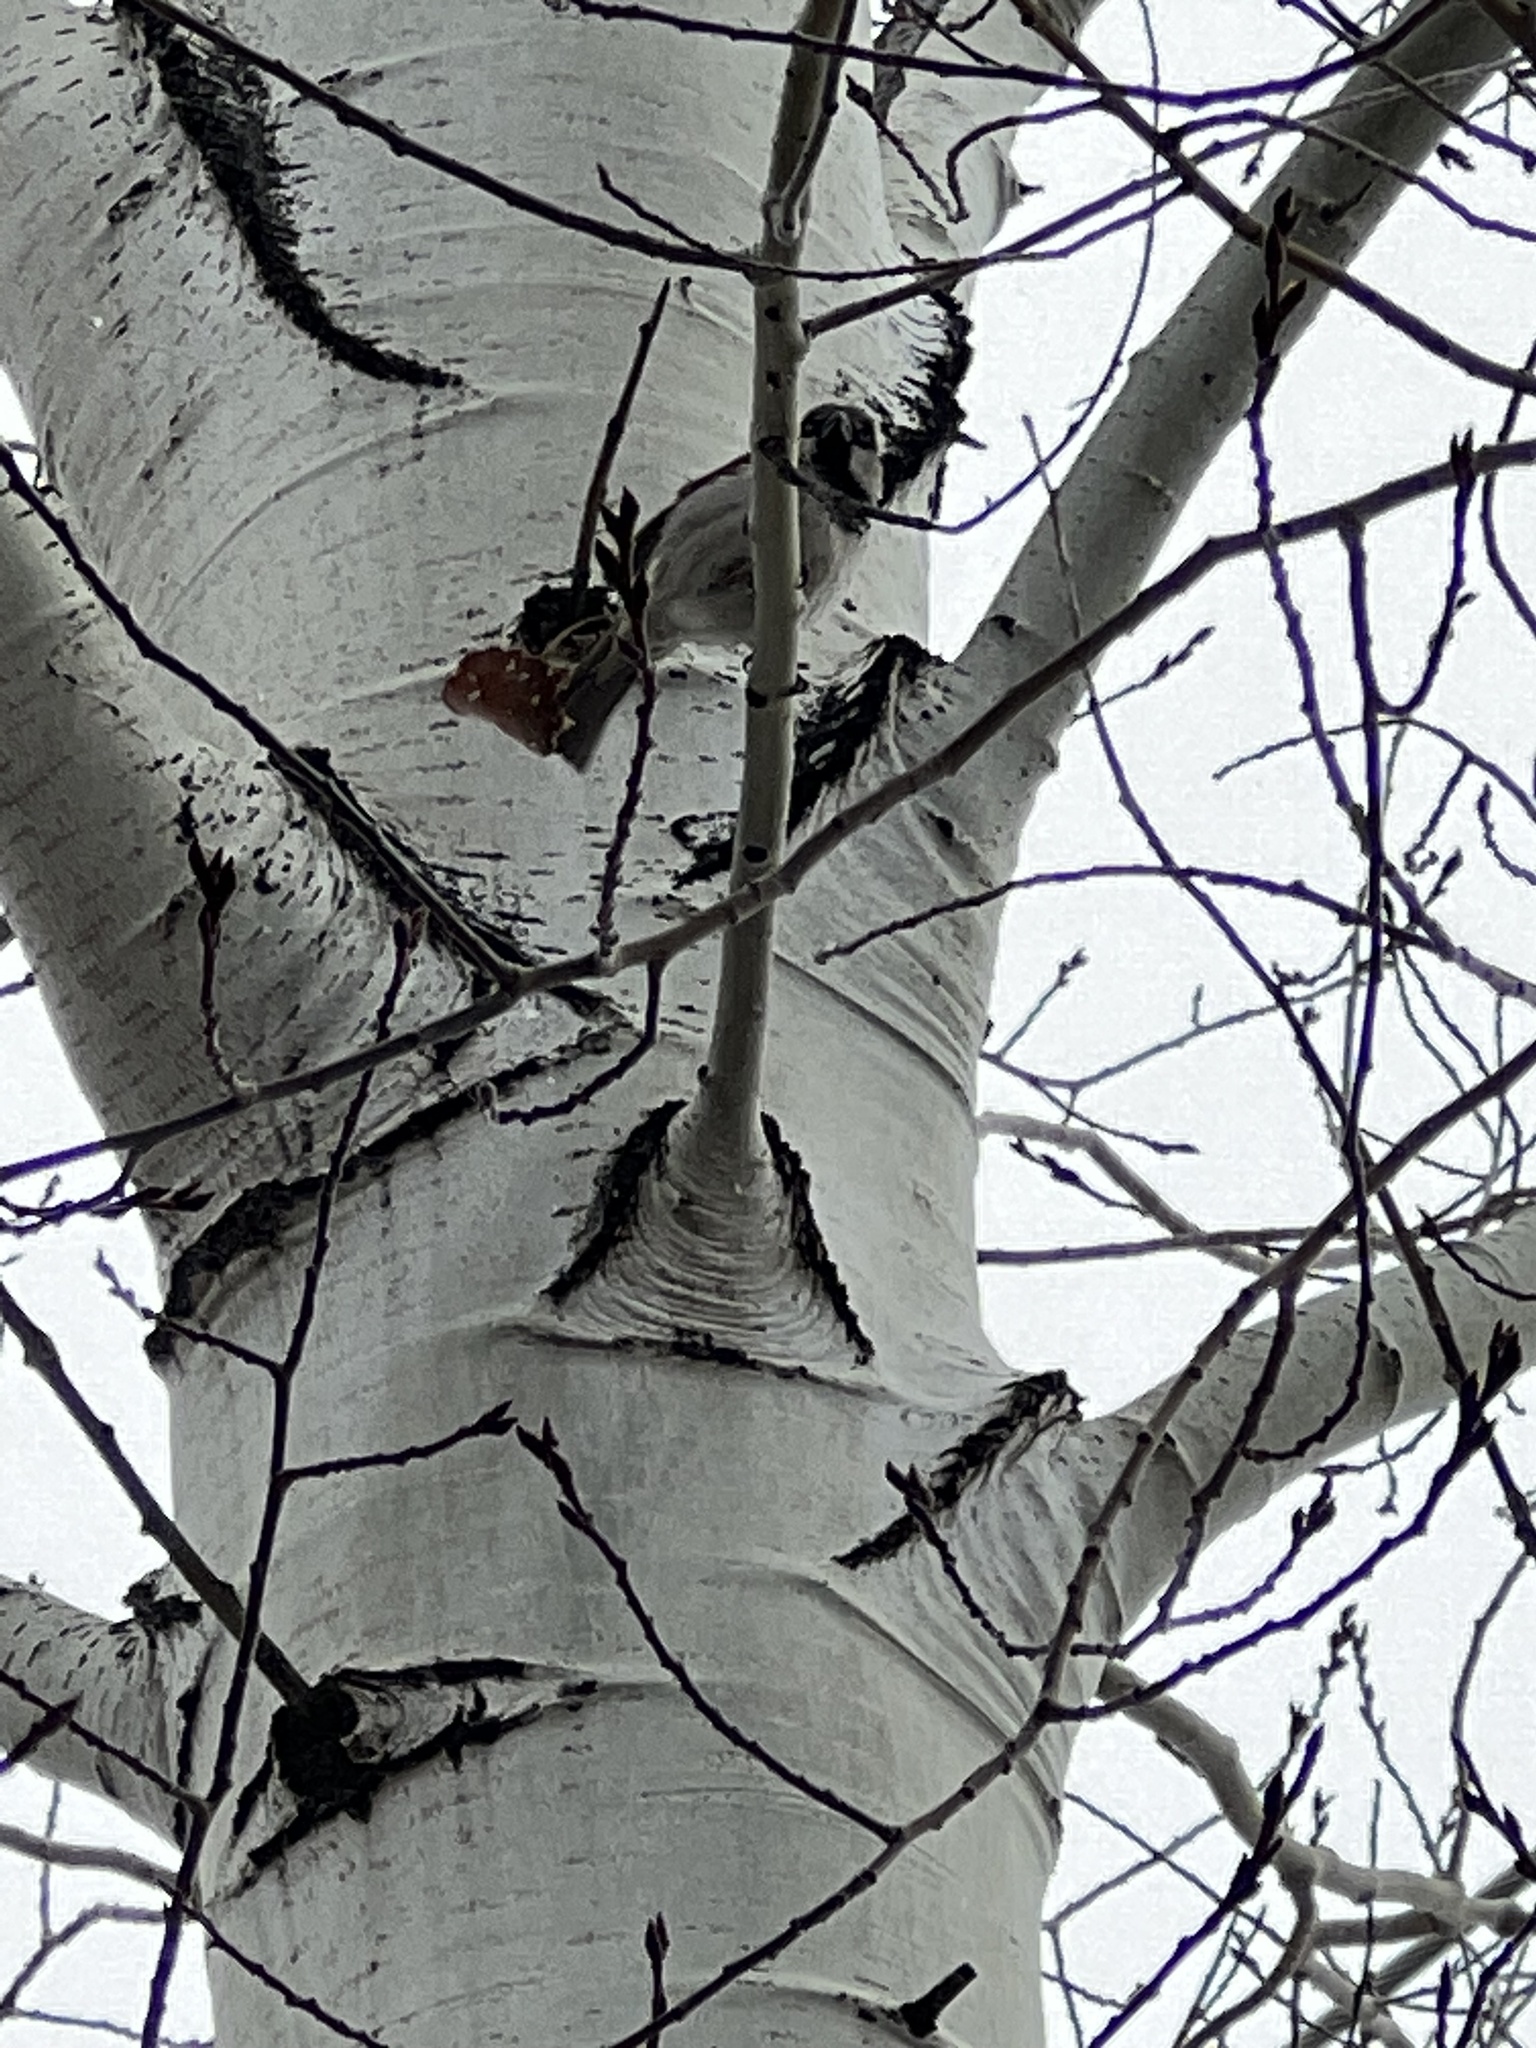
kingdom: Animalia
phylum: Chordata
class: Aves
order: Passeriformes
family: Passeridae
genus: Passer
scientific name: Passer domesticus
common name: House sparrow
